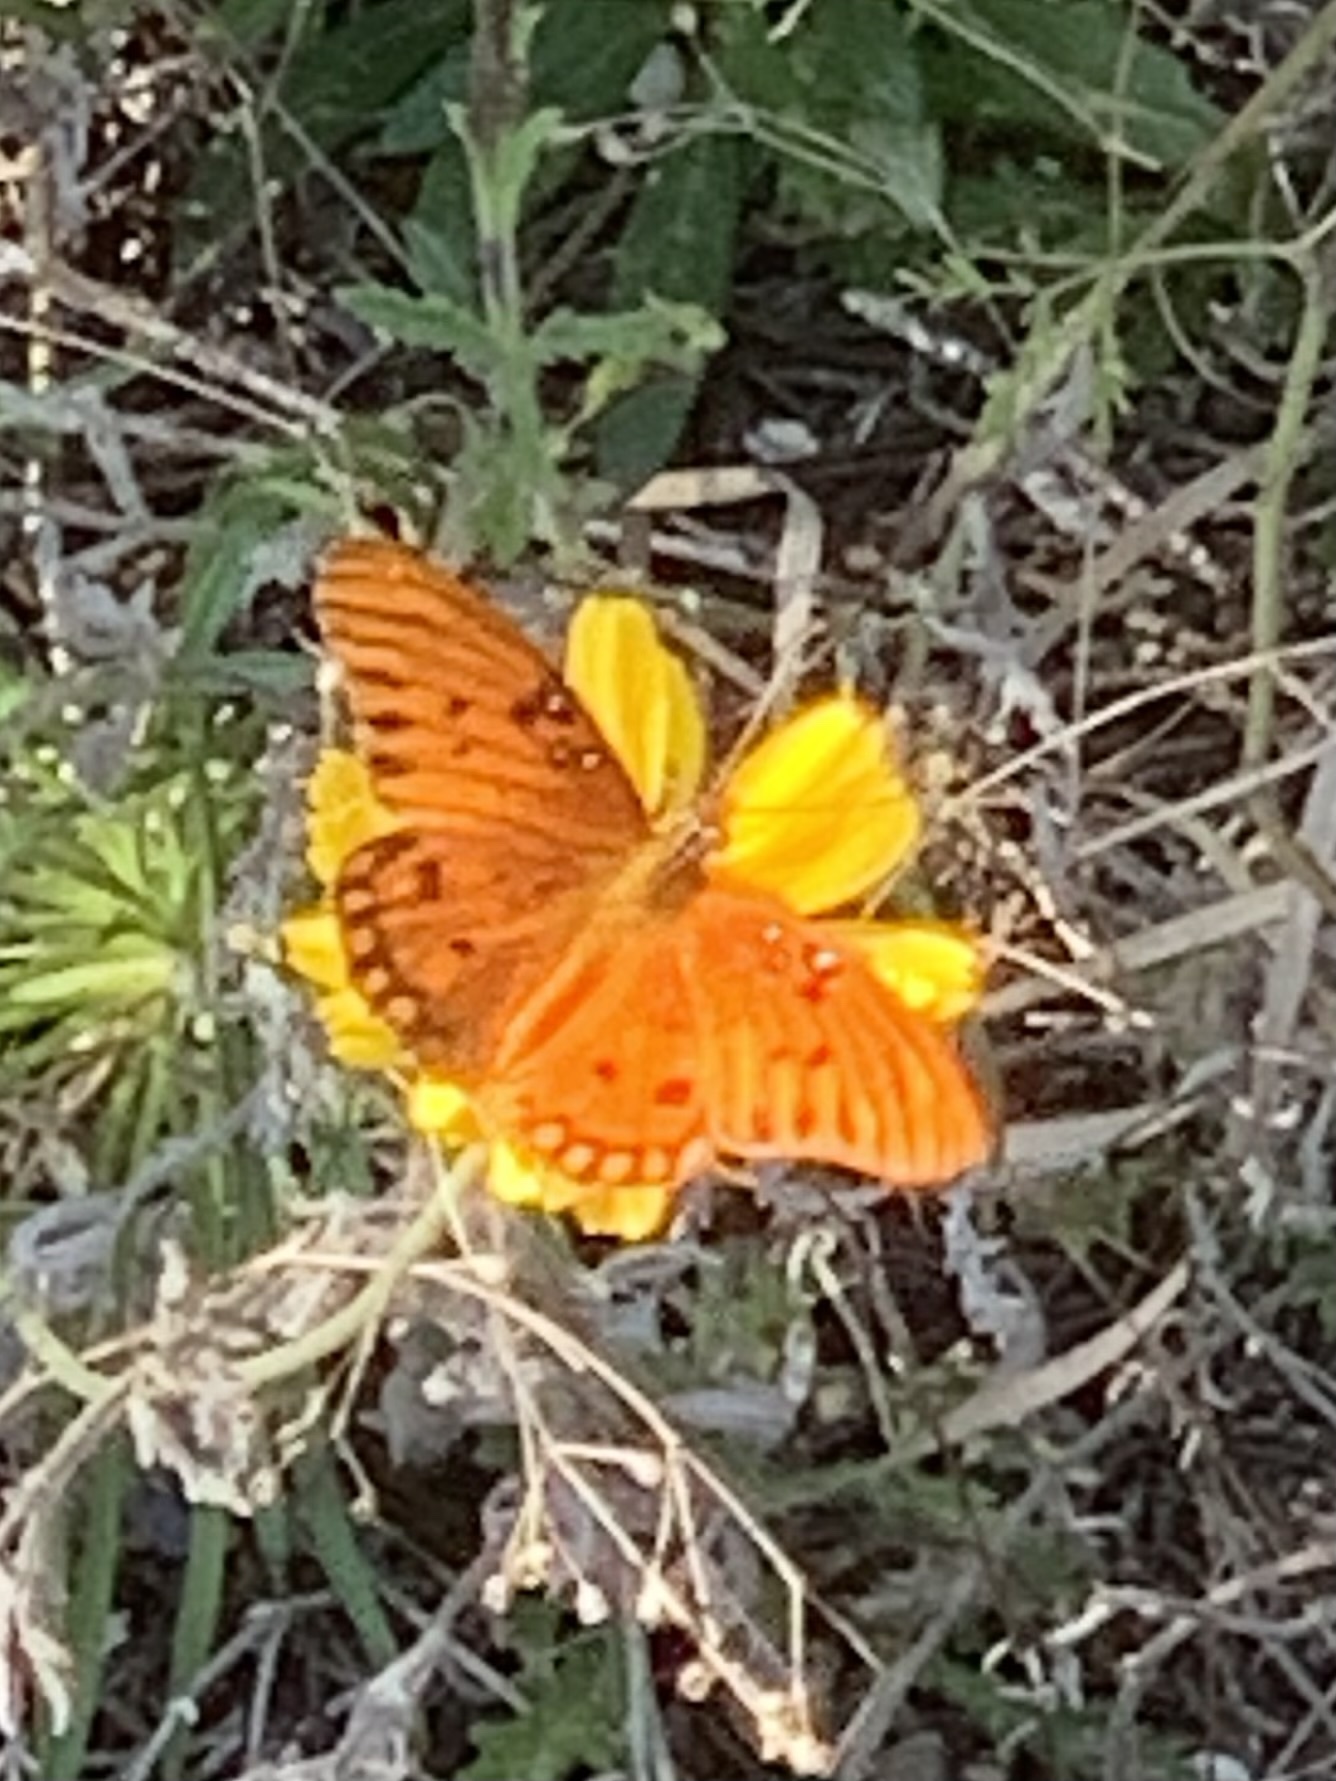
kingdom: Animalia
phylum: Arthropoda
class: Insecta
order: Lepidoptera
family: Nymphalidae
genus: Dione
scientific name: Dione vanillae
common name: Gulf fritillary
